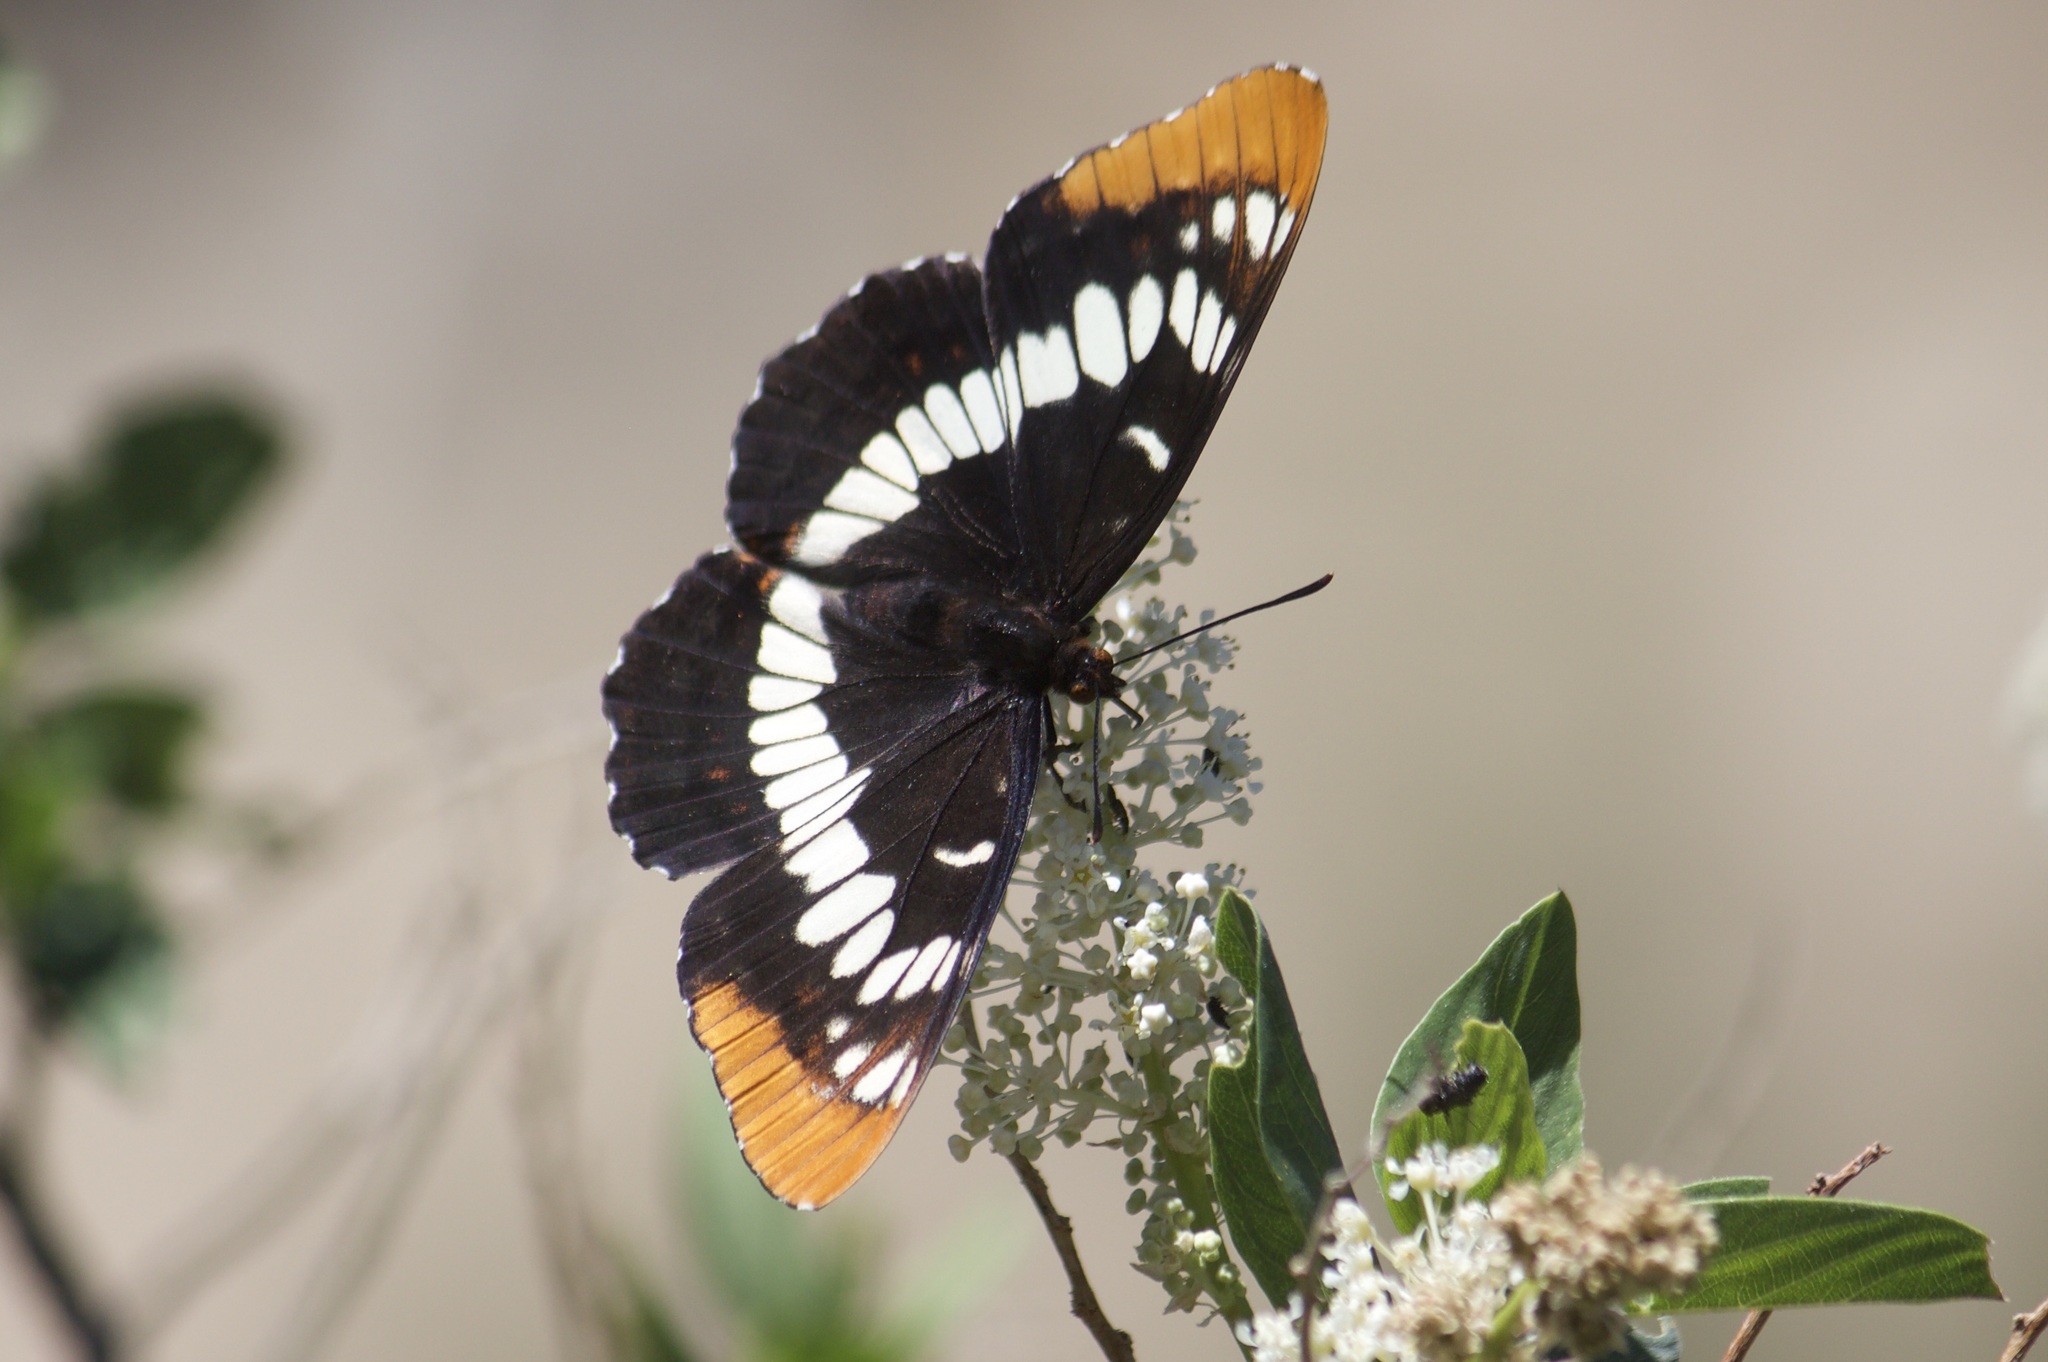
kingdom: Animalia
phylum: Arthropoda
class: Insecta
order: Lepidoptera
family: Nymphalidae
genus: Limenitis
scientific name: Limenitis lorquini
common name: Lorquin's admiral
